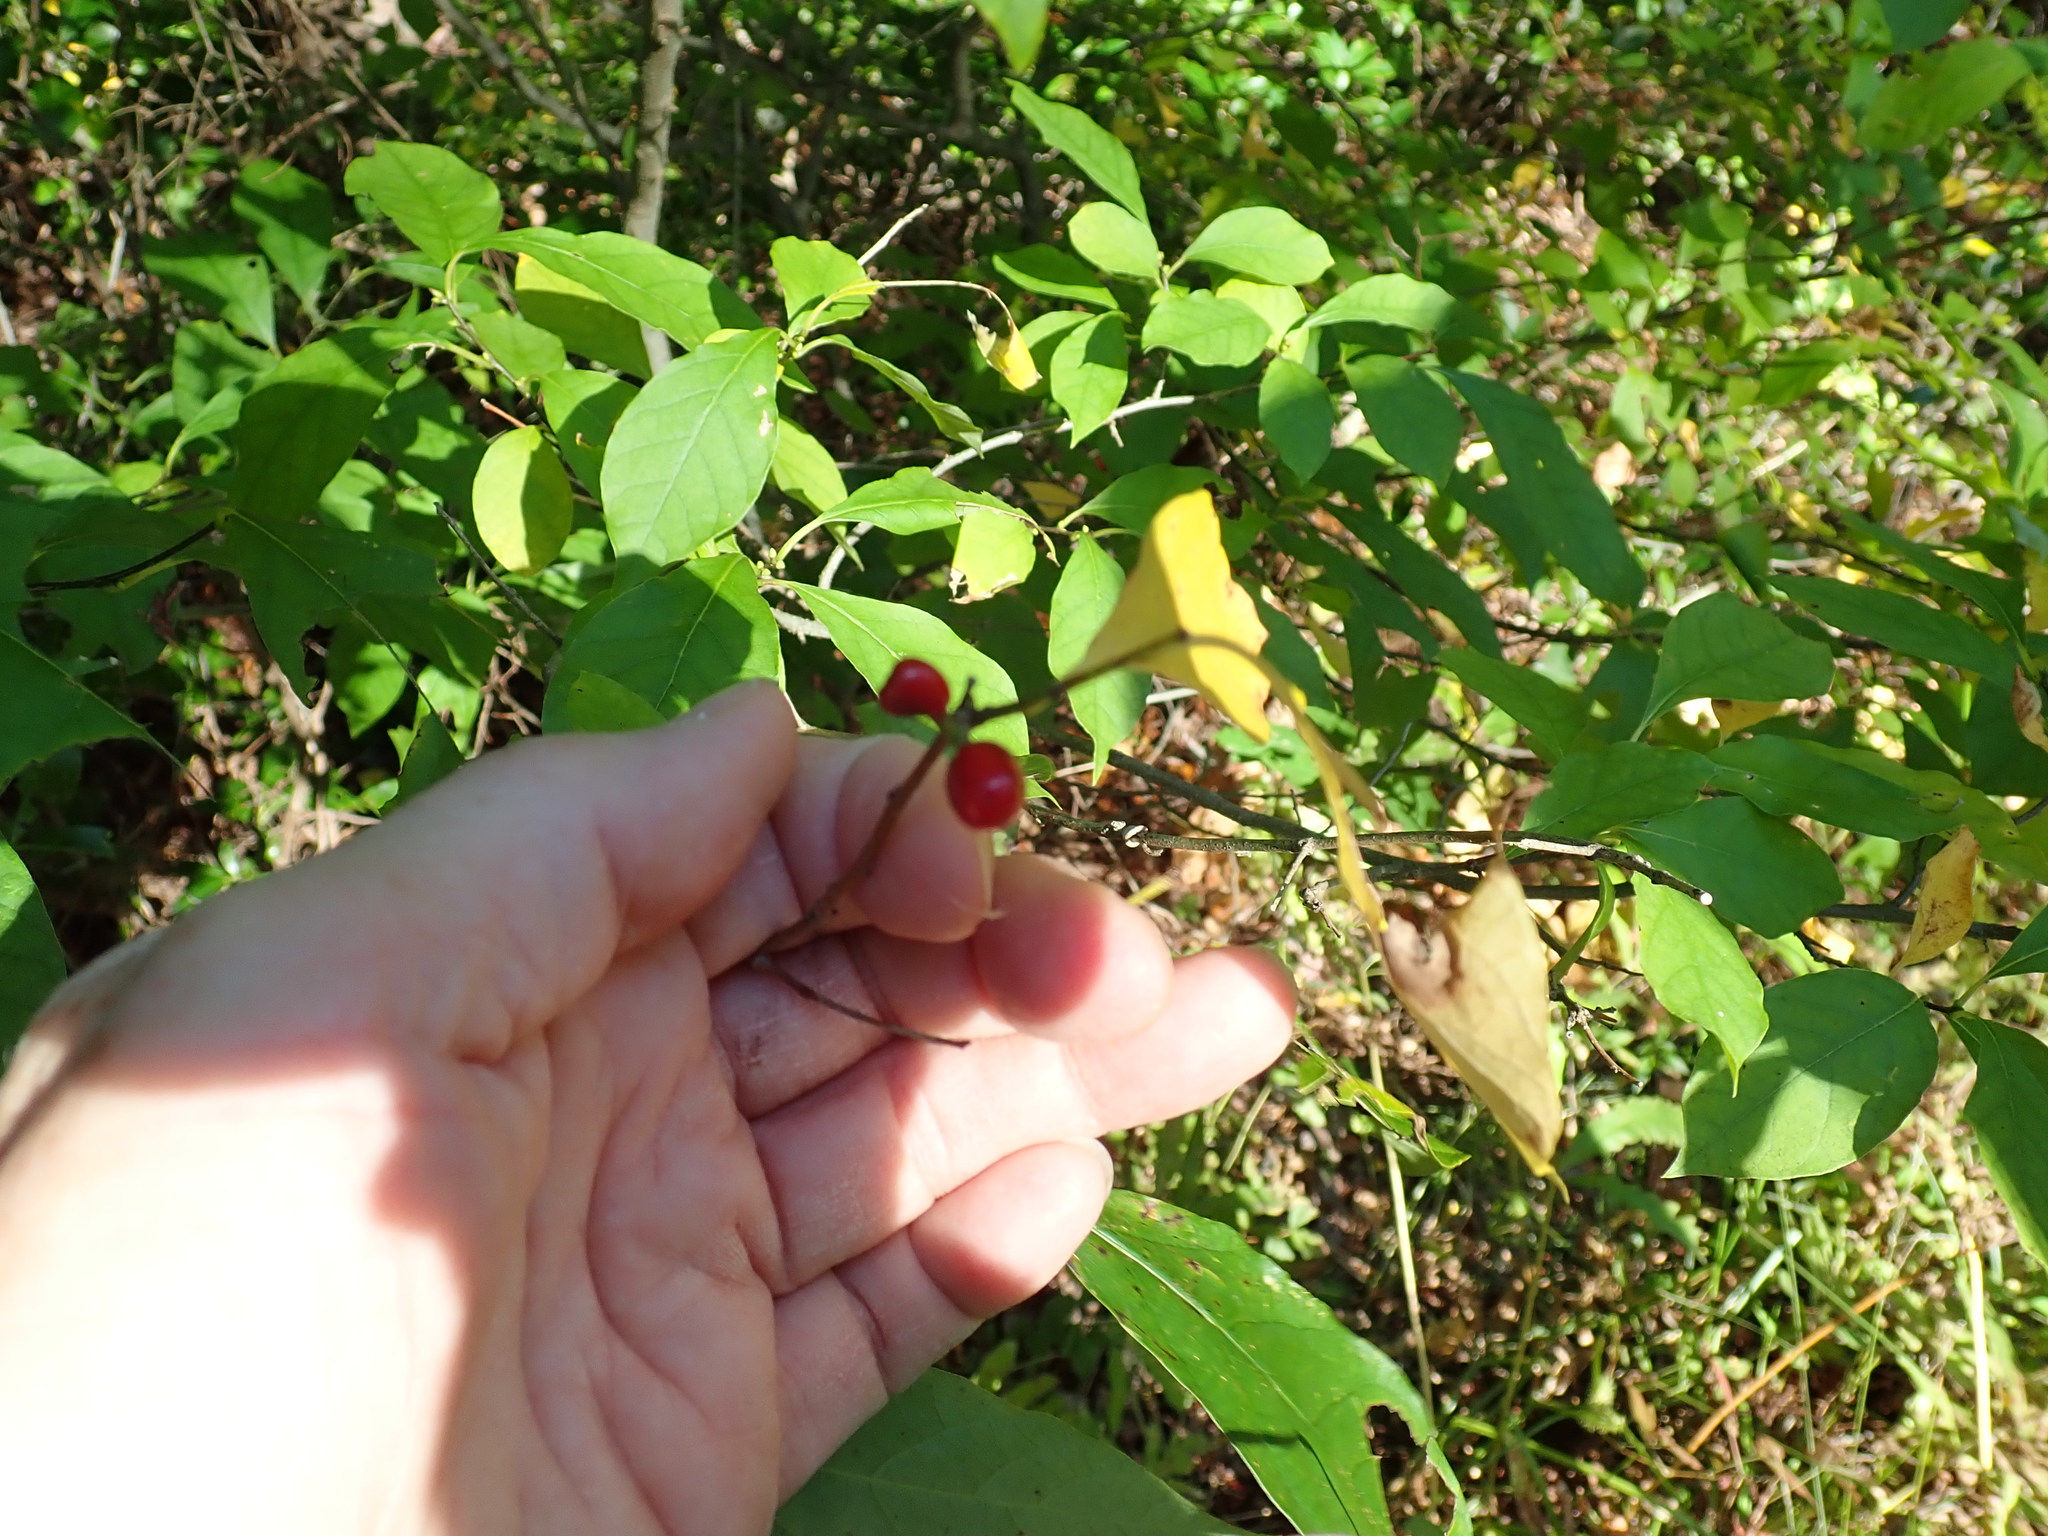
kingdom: Plantae
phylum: Tracheophyta
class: Magnoliopsida
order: Laurales
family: Lauraceae
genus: Lindera
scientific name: Lindera benzoin
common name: Spicebush
